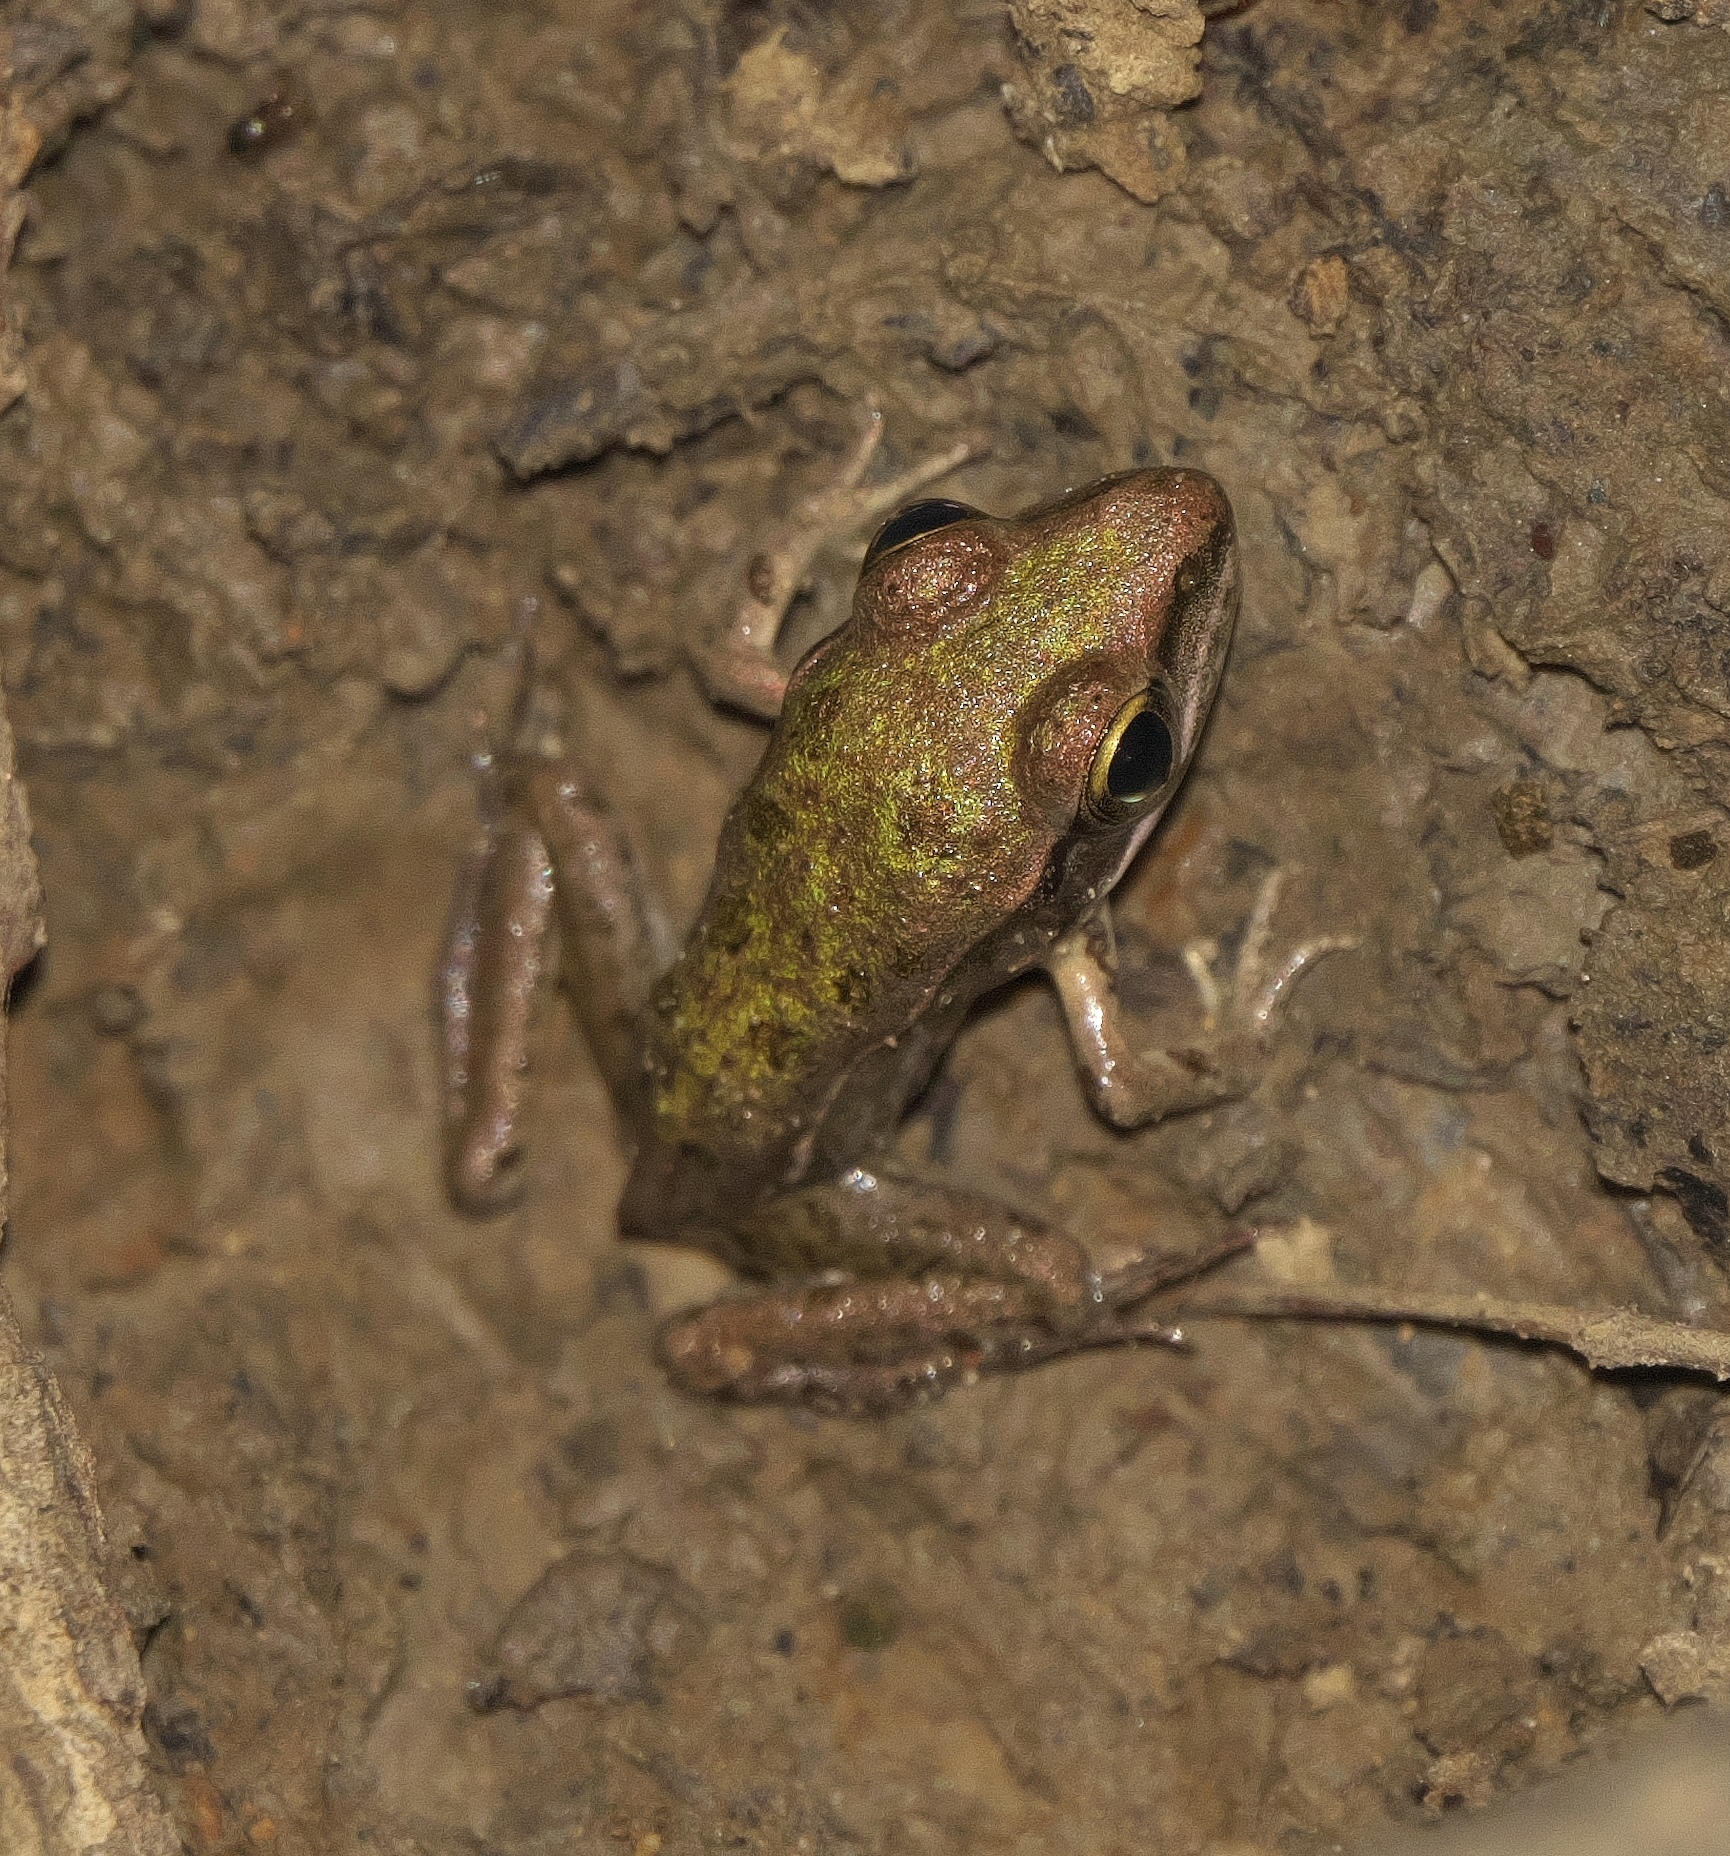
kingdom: Animalia
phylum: Chordata
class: Amphibia
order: Anura
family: Ranidae
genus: Lithobates
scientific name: Lithobates sphenocephalus
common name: Southern leopard frog
